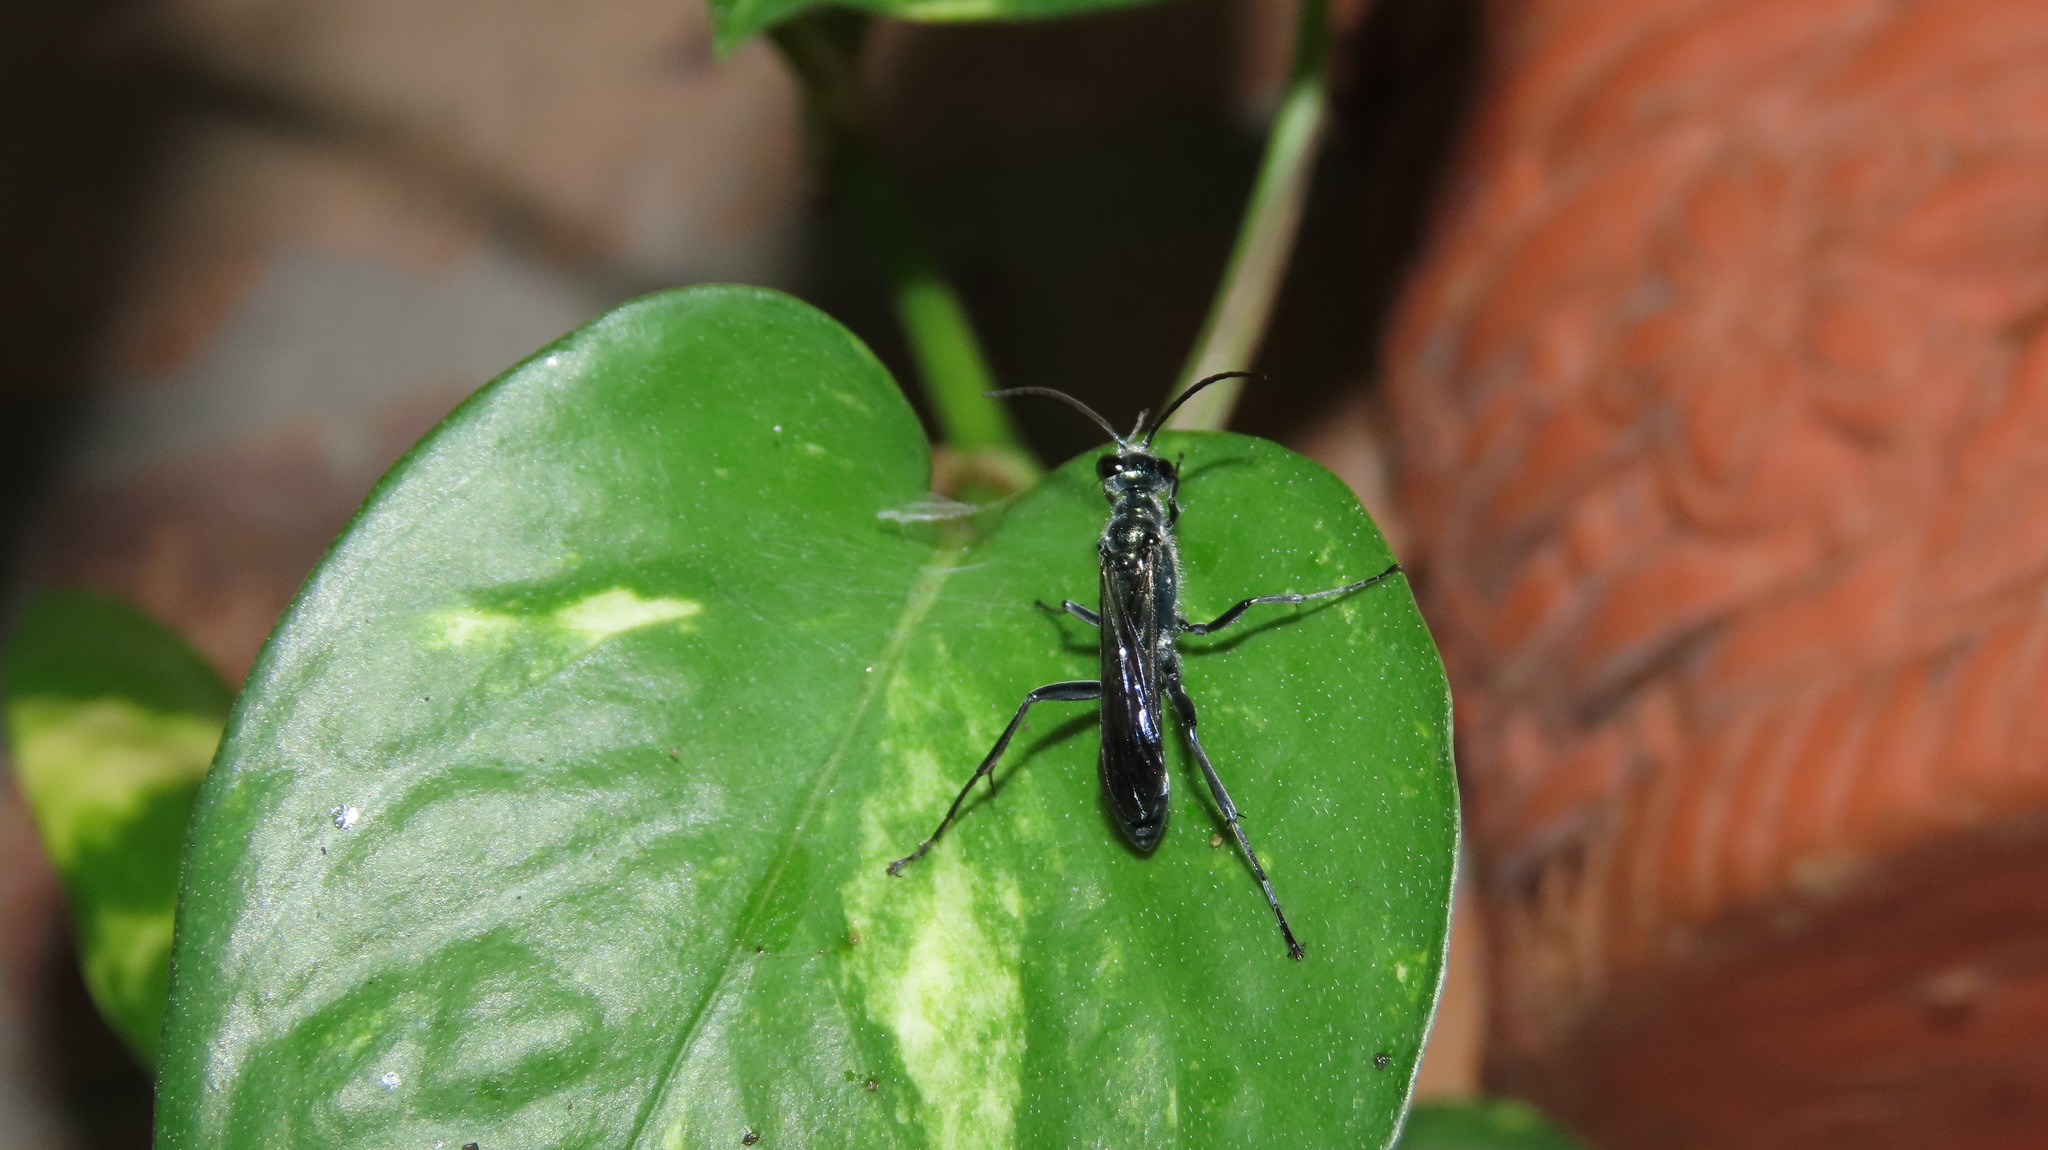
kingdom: Animalia
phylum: Arthropoda
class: Insecta
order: Hymenoptera
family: Sphecidae
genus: Chalybion
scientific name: Chalybion
